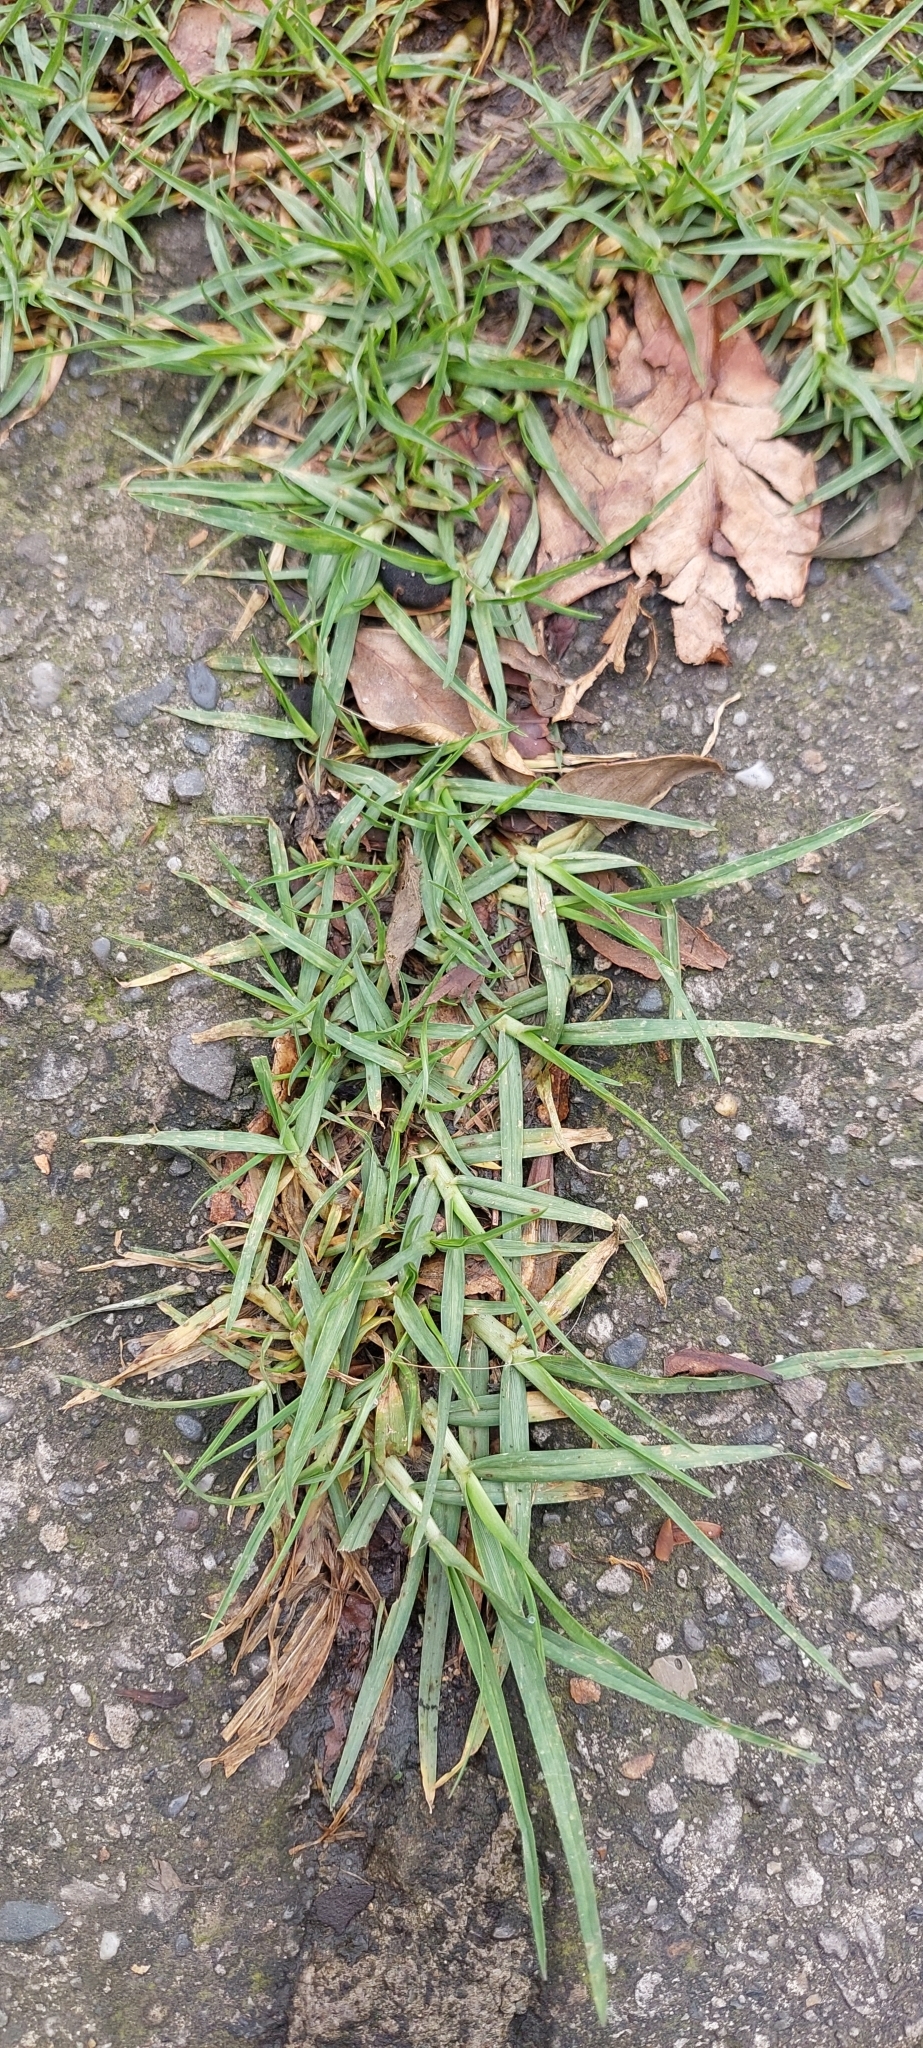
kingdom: Plantae
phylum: Tracheophyta
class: Liliopsida
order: Poales
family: Poaceae
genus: Cenchrus
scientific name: Cenchrus clandestinus
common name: Kikuyugrass
